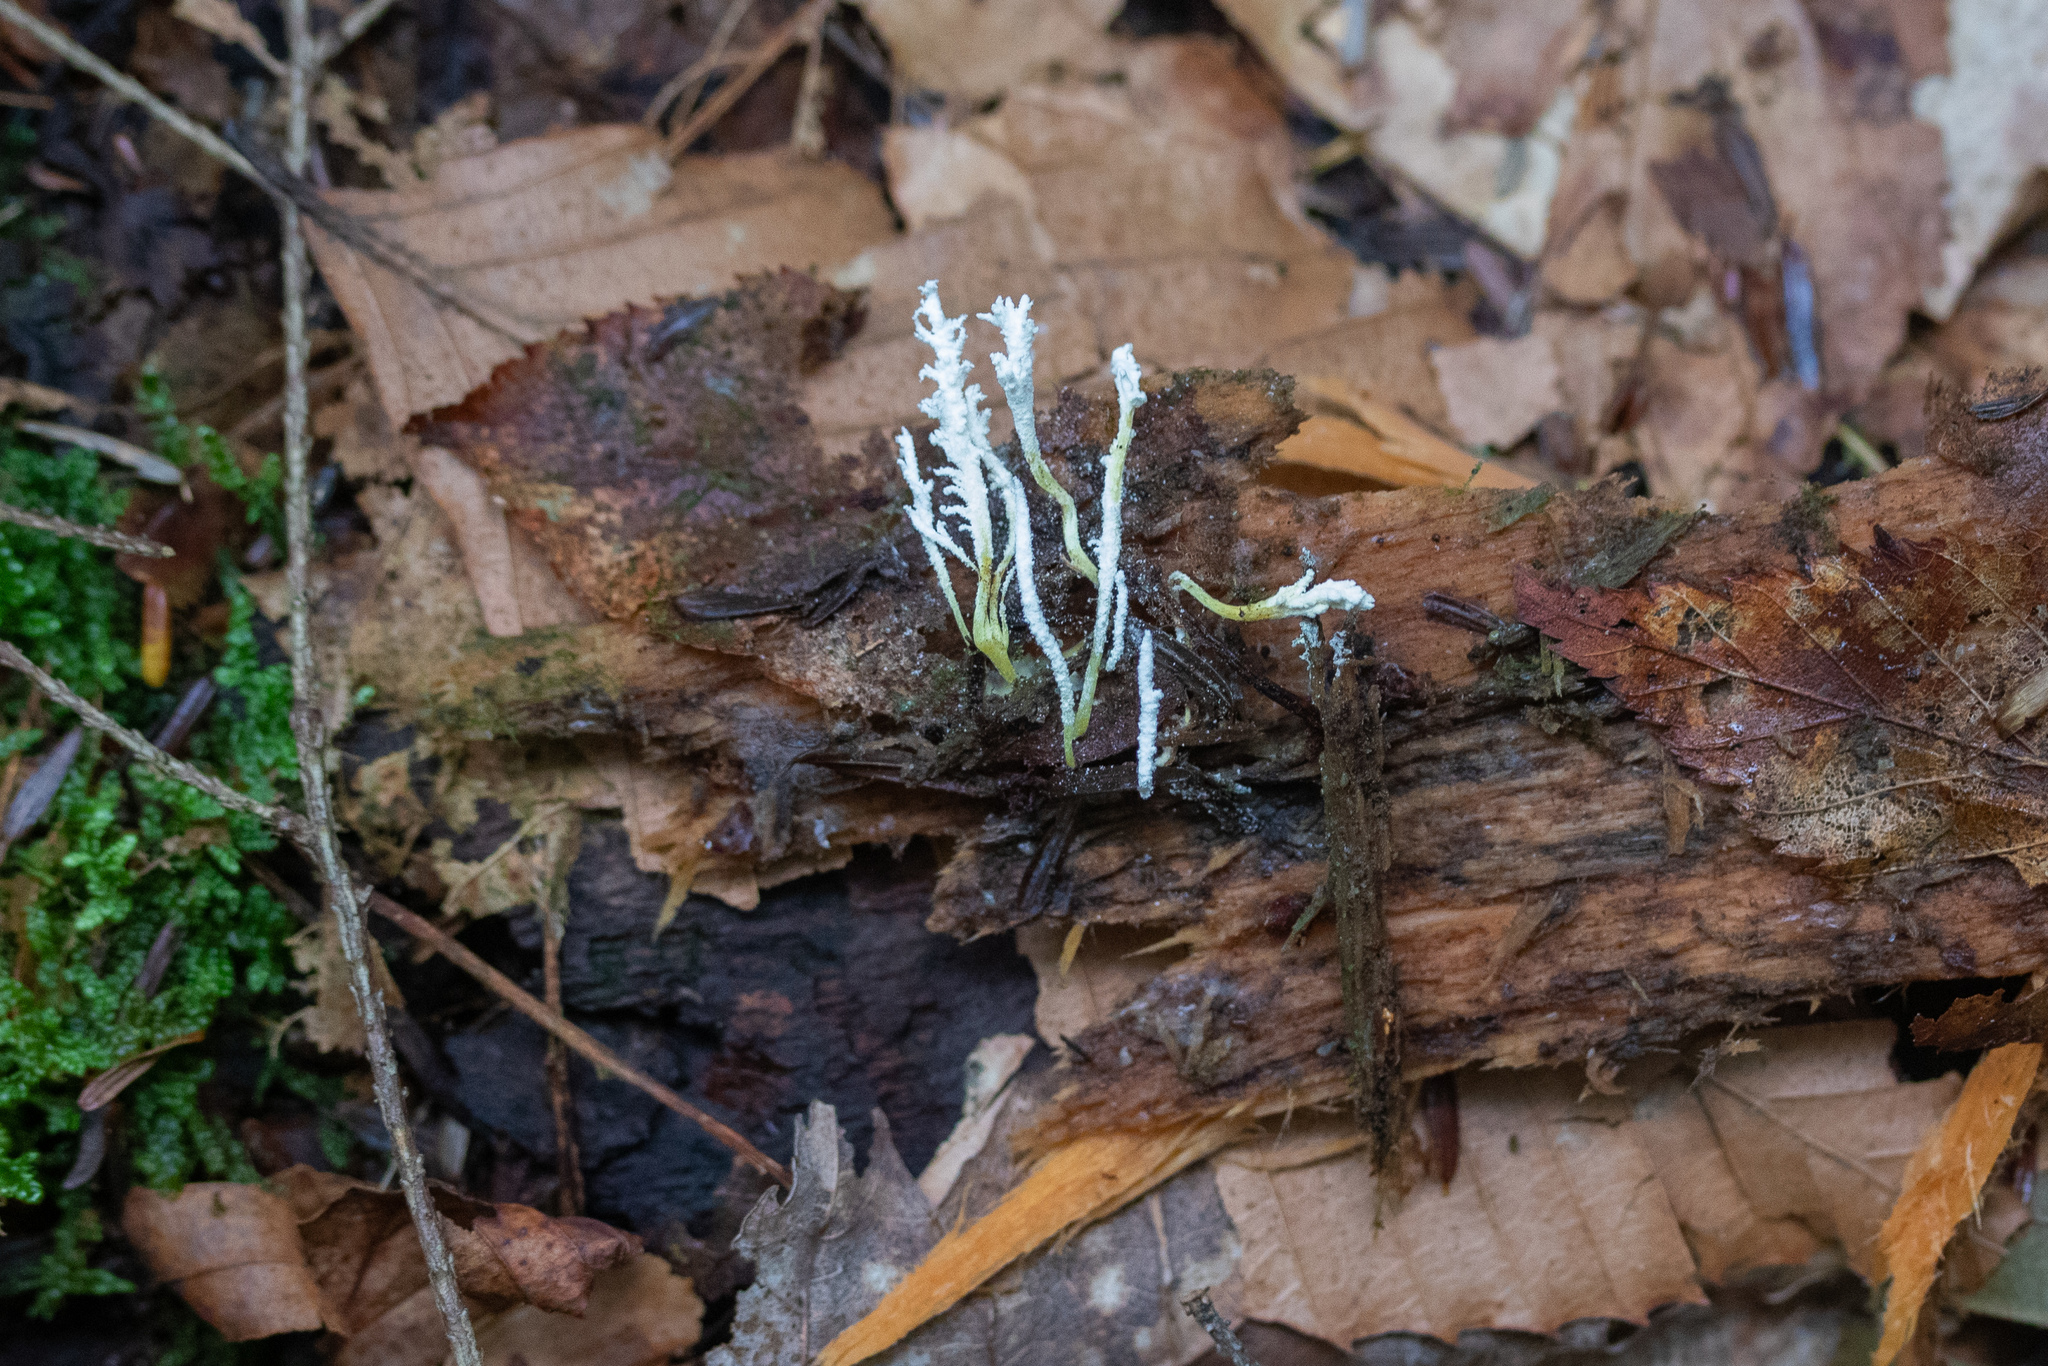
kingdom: Fungi
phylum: Ascomycota
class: Sordariomycetes
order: Hypocreales
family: Cordycipitaceae
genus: Cordyceps
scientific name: Cordyceps tenuipes
